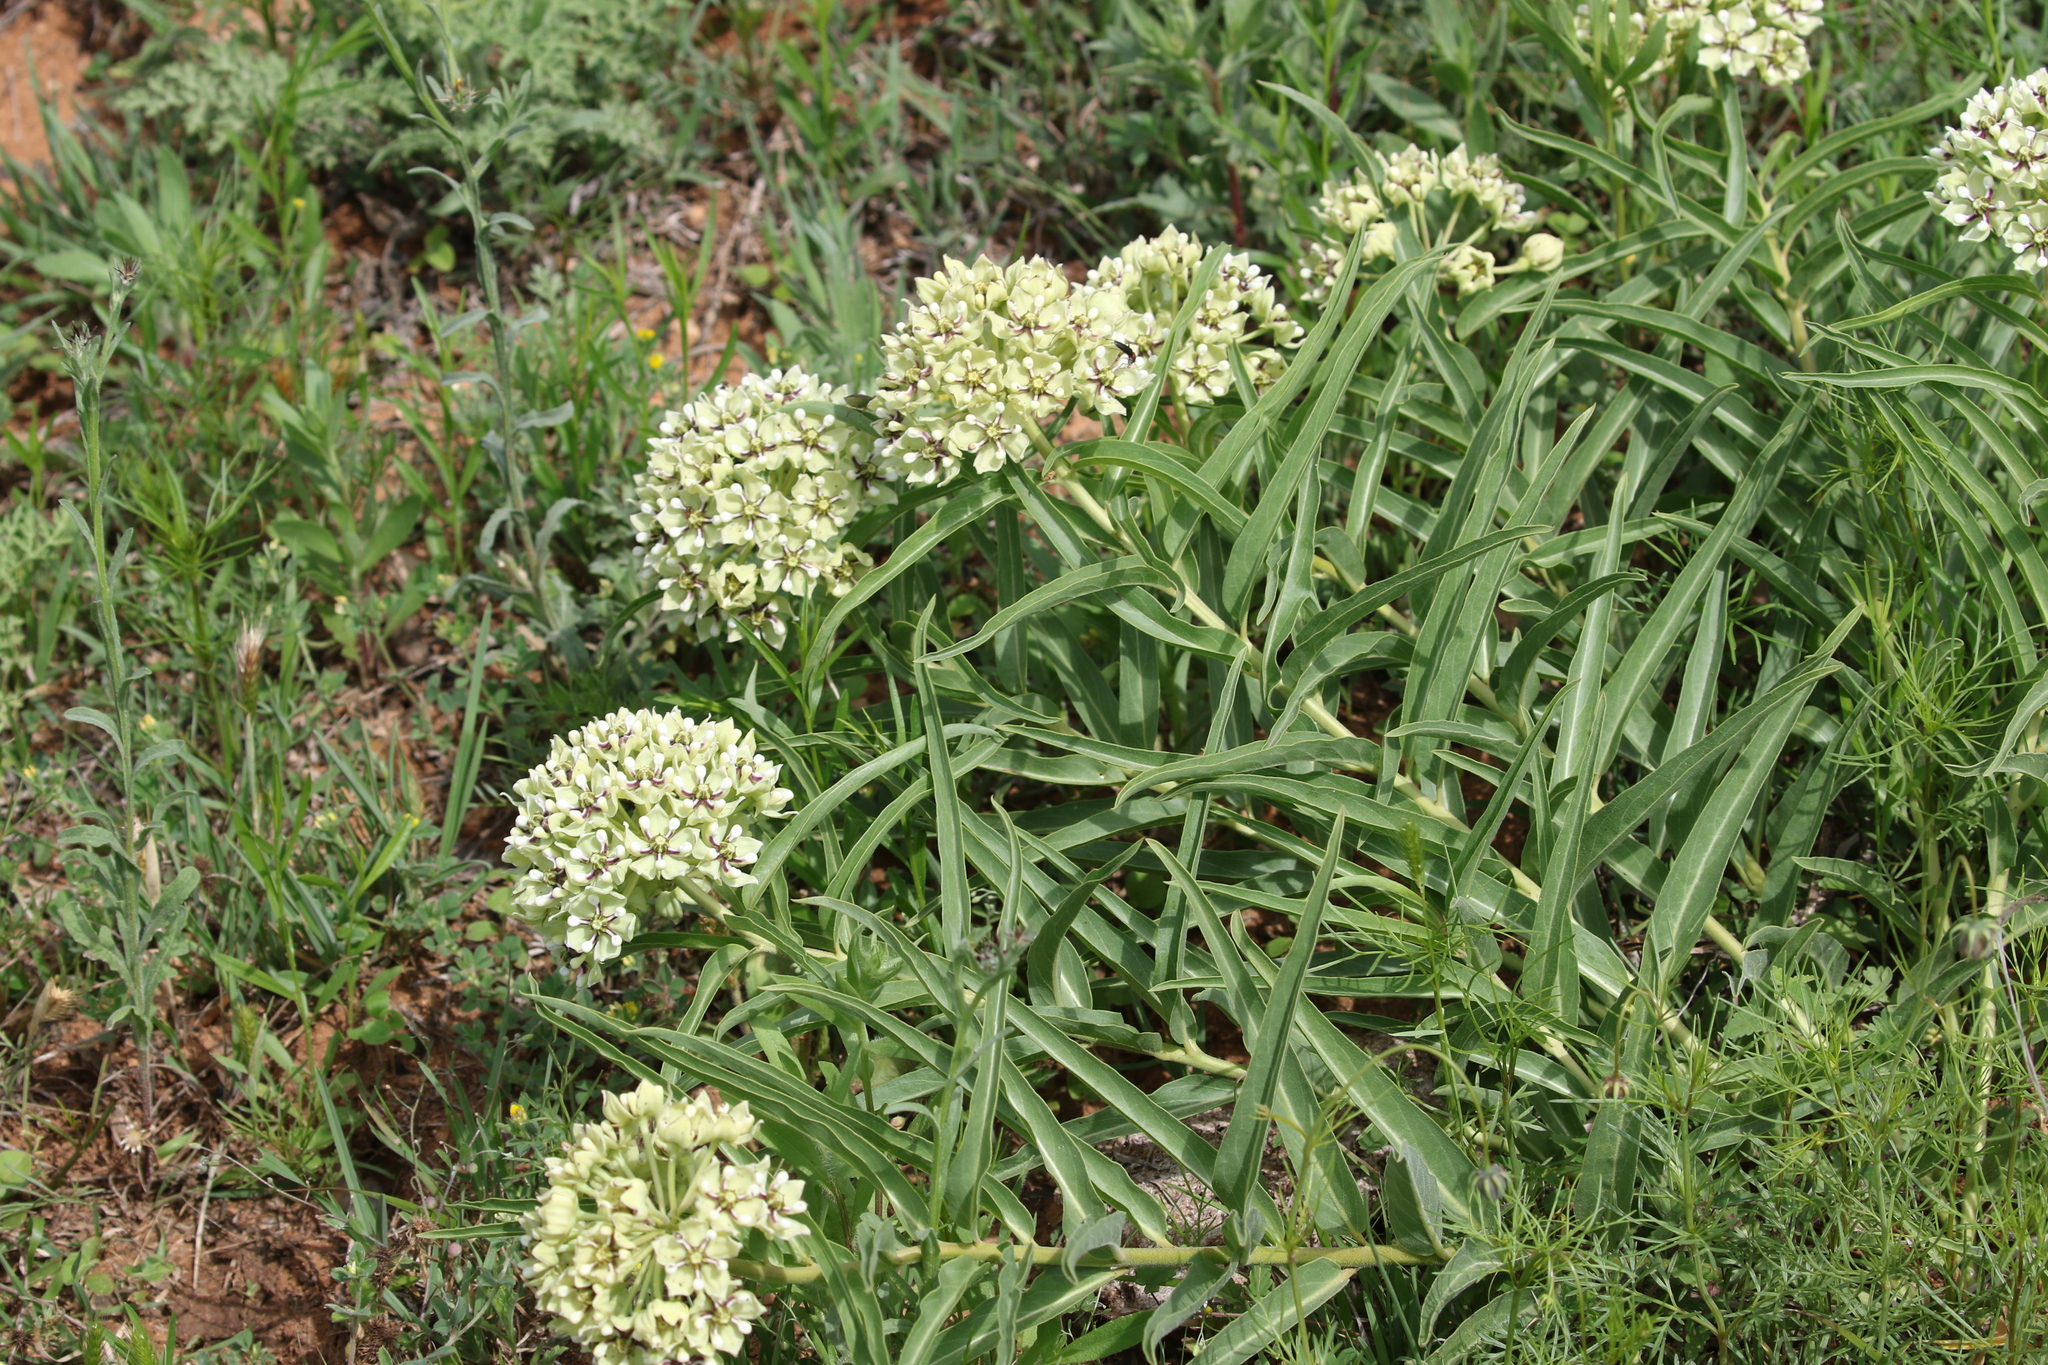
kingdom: Plantae
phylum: Tracheophyta
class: Magnoliopsida
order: Gentianales
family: Apocynaceae
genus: Asclepias
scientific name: Asclepias asperula
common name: Antelope horns
